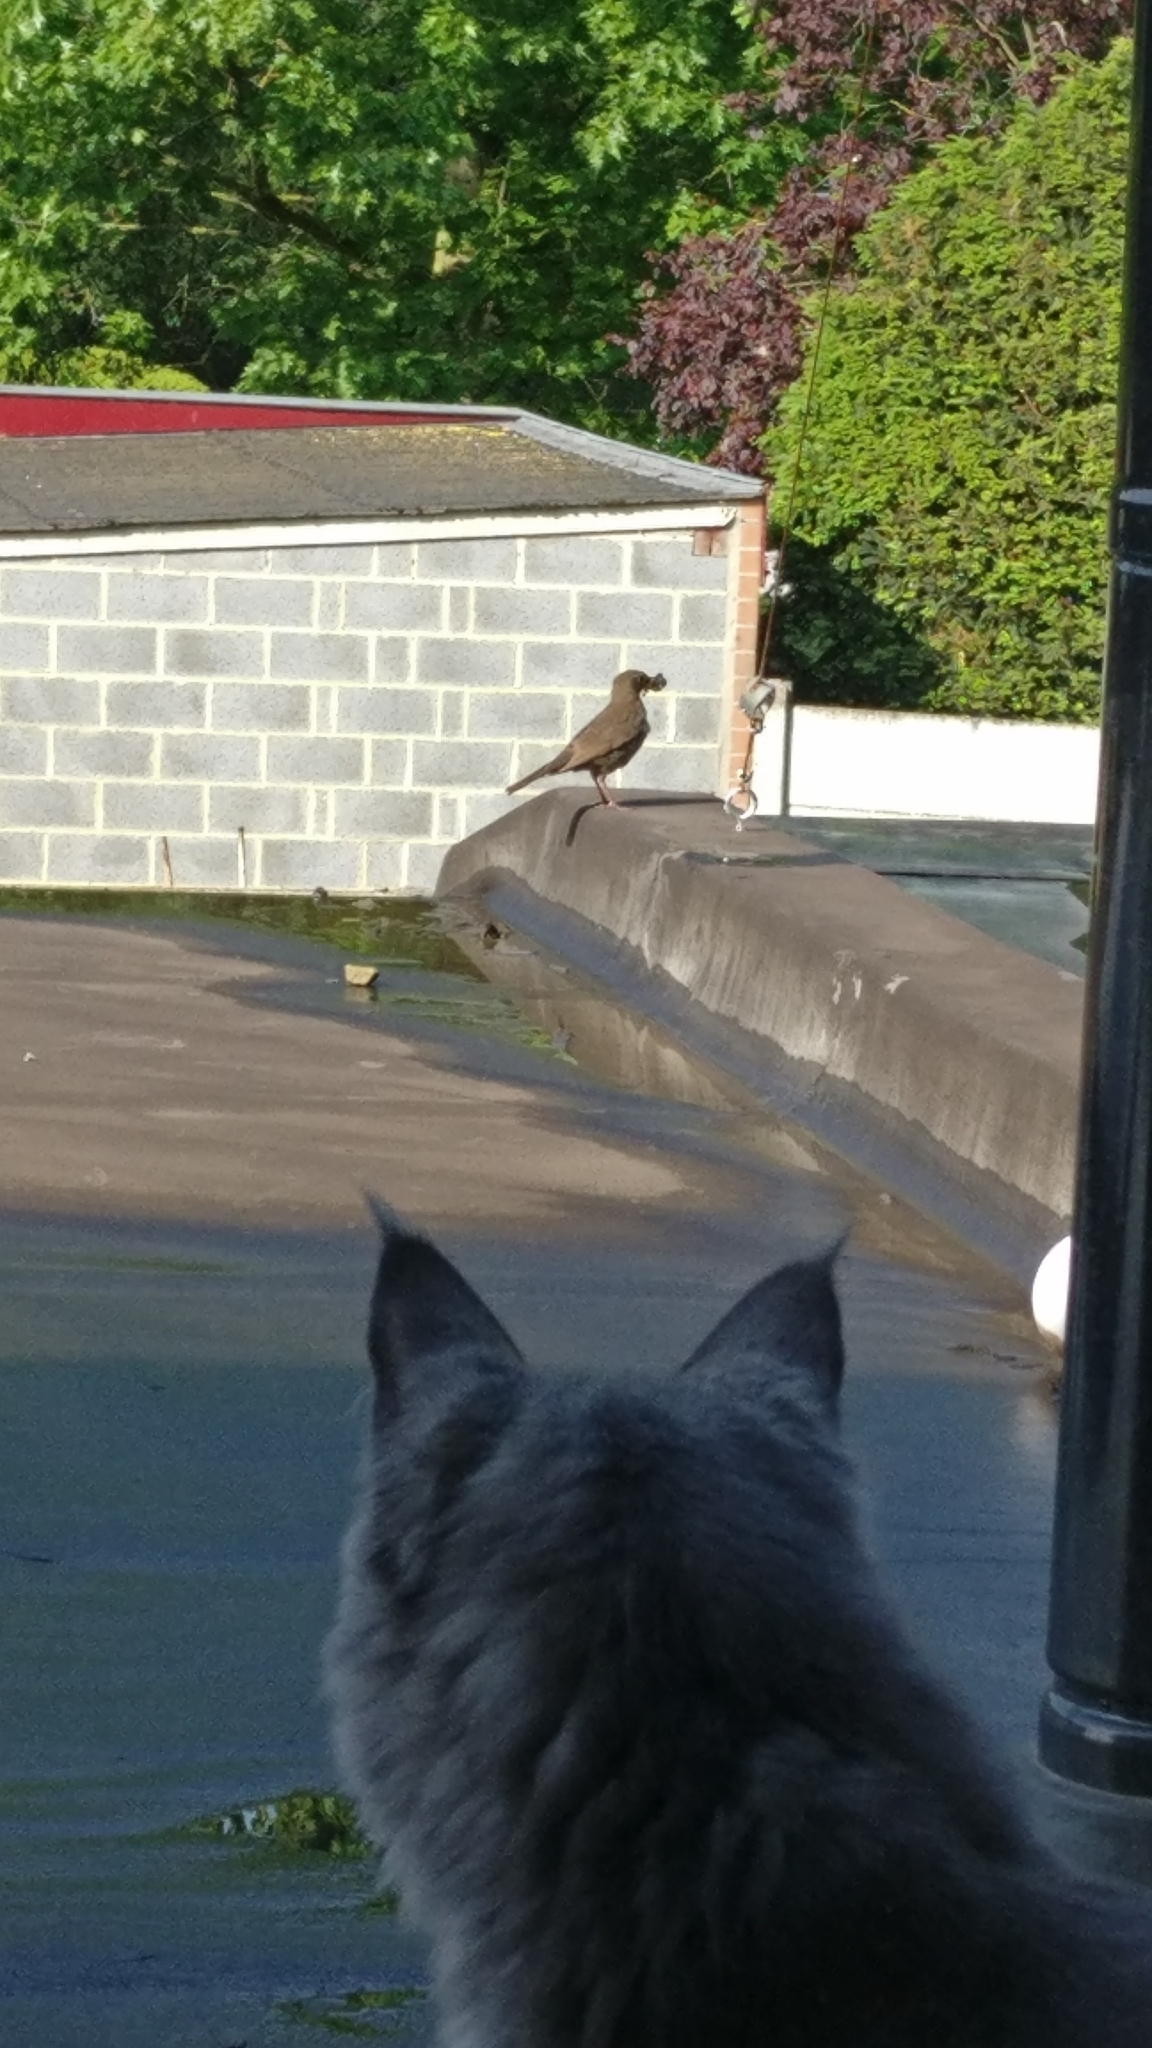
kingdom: Animalia
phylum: Chordata
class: Aves
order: Passeriformes
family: Turdidae
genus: Turdus
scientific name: Turdus merula
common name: Common blackbird
